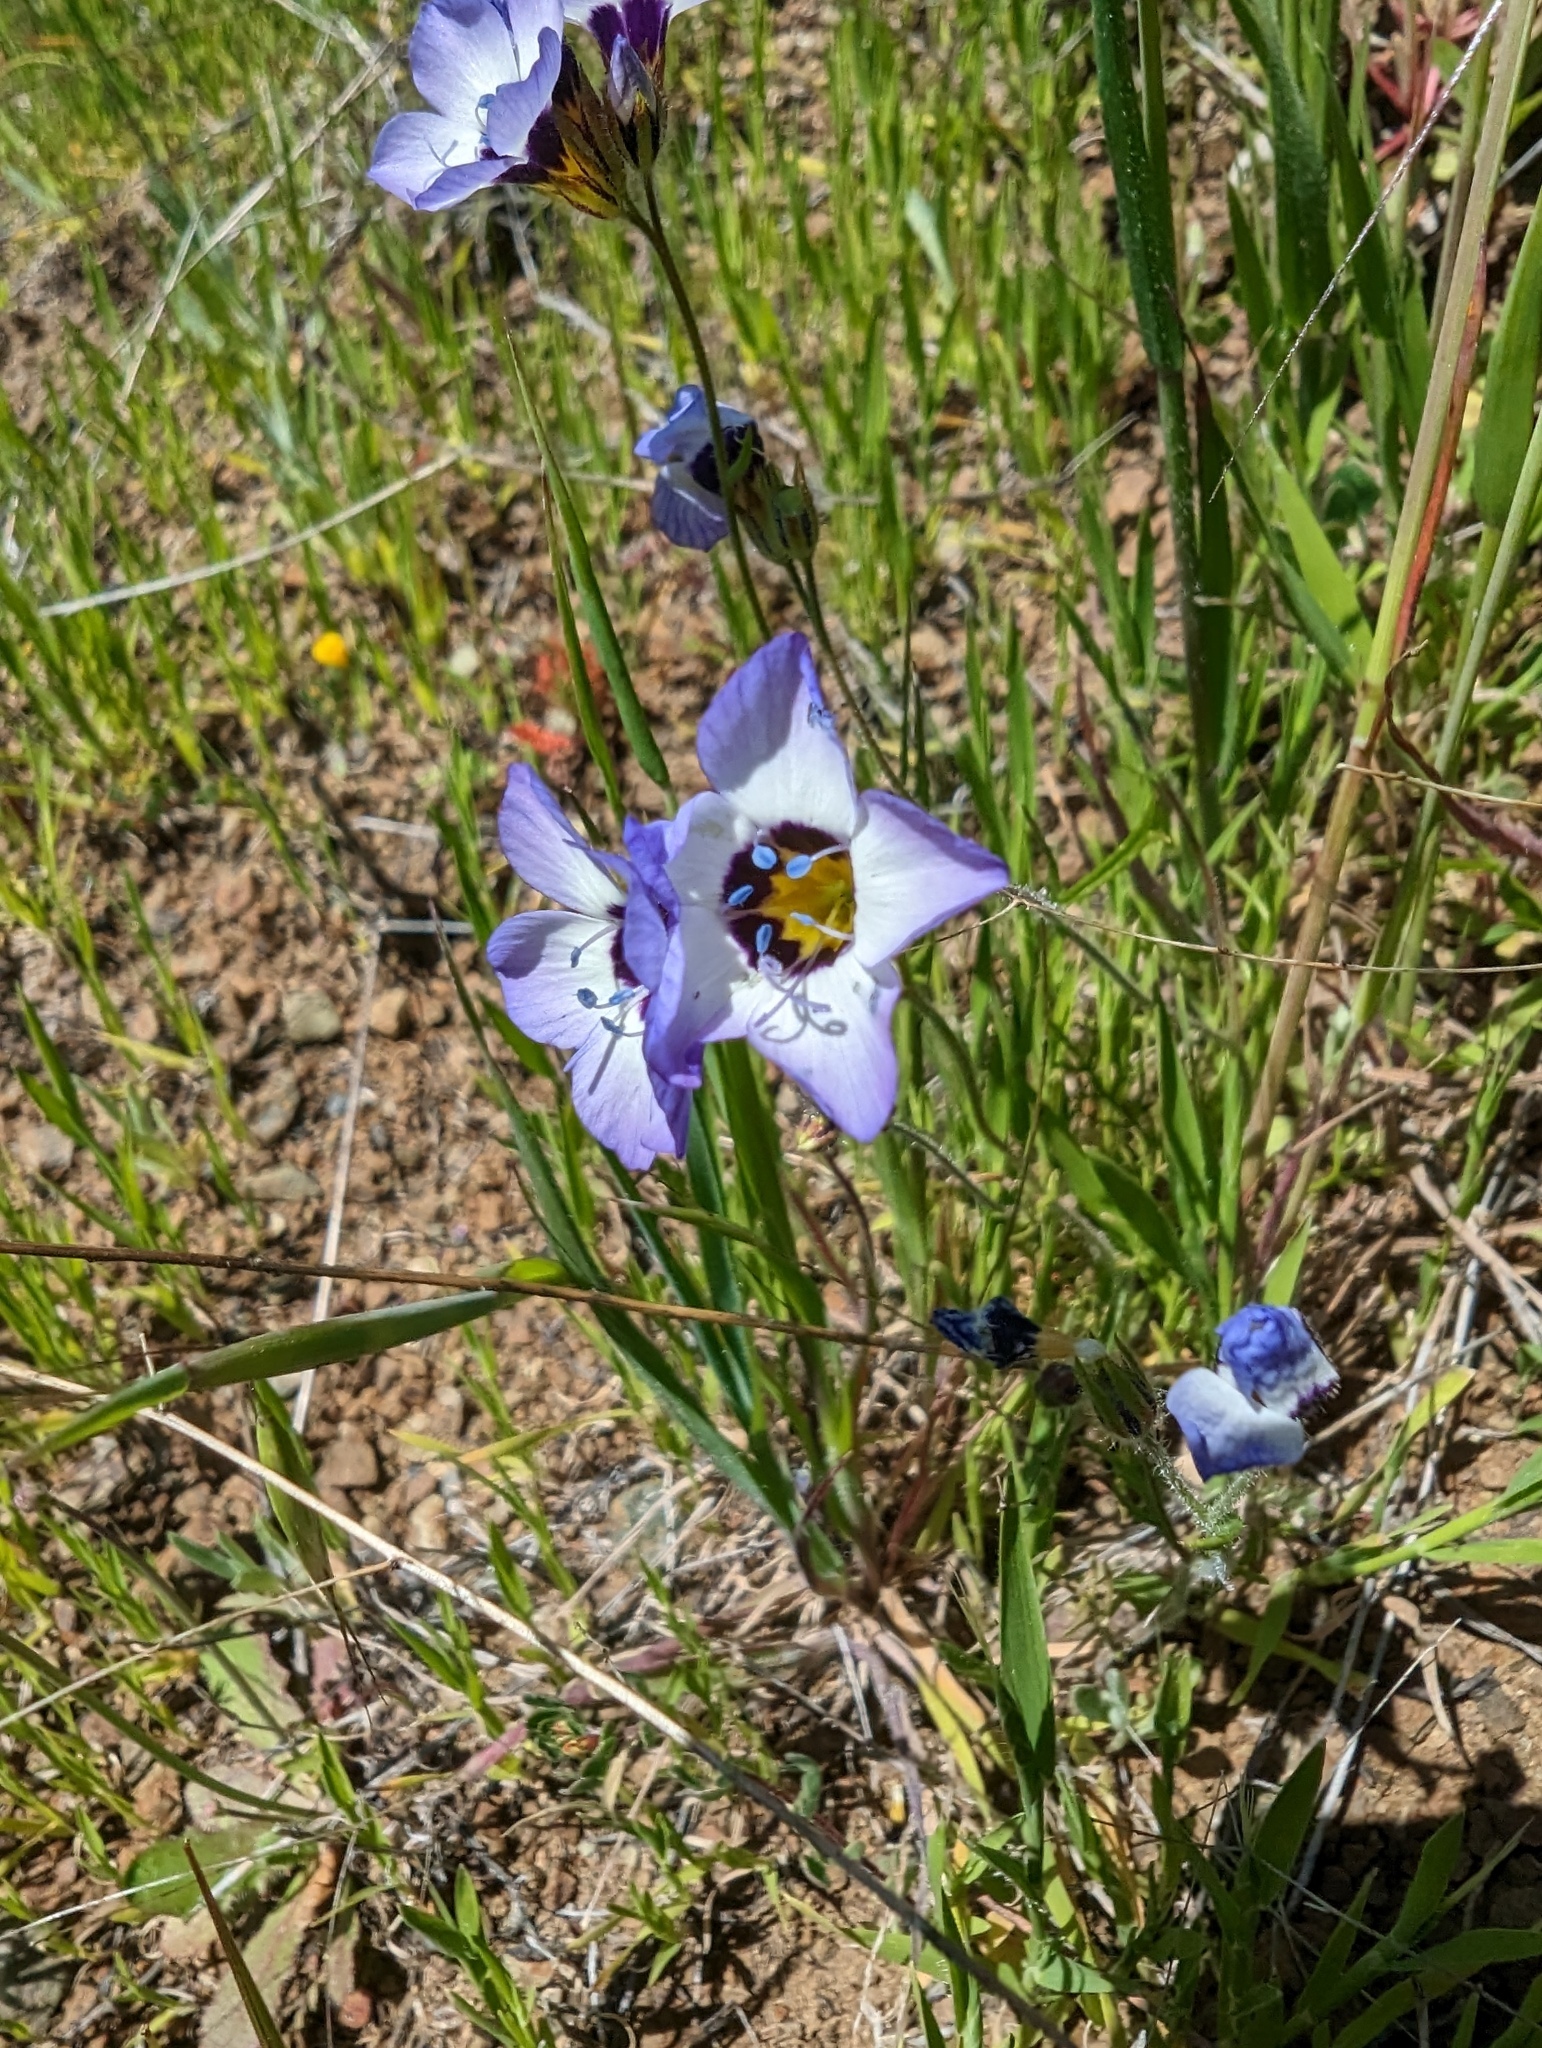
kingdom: Plantae
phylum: Tracheophyta
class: Magnoliopsida
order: Ericales
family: Polemoniaceae
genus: Gilia
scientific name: Gilia tricolor
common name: Bird's-eyes
